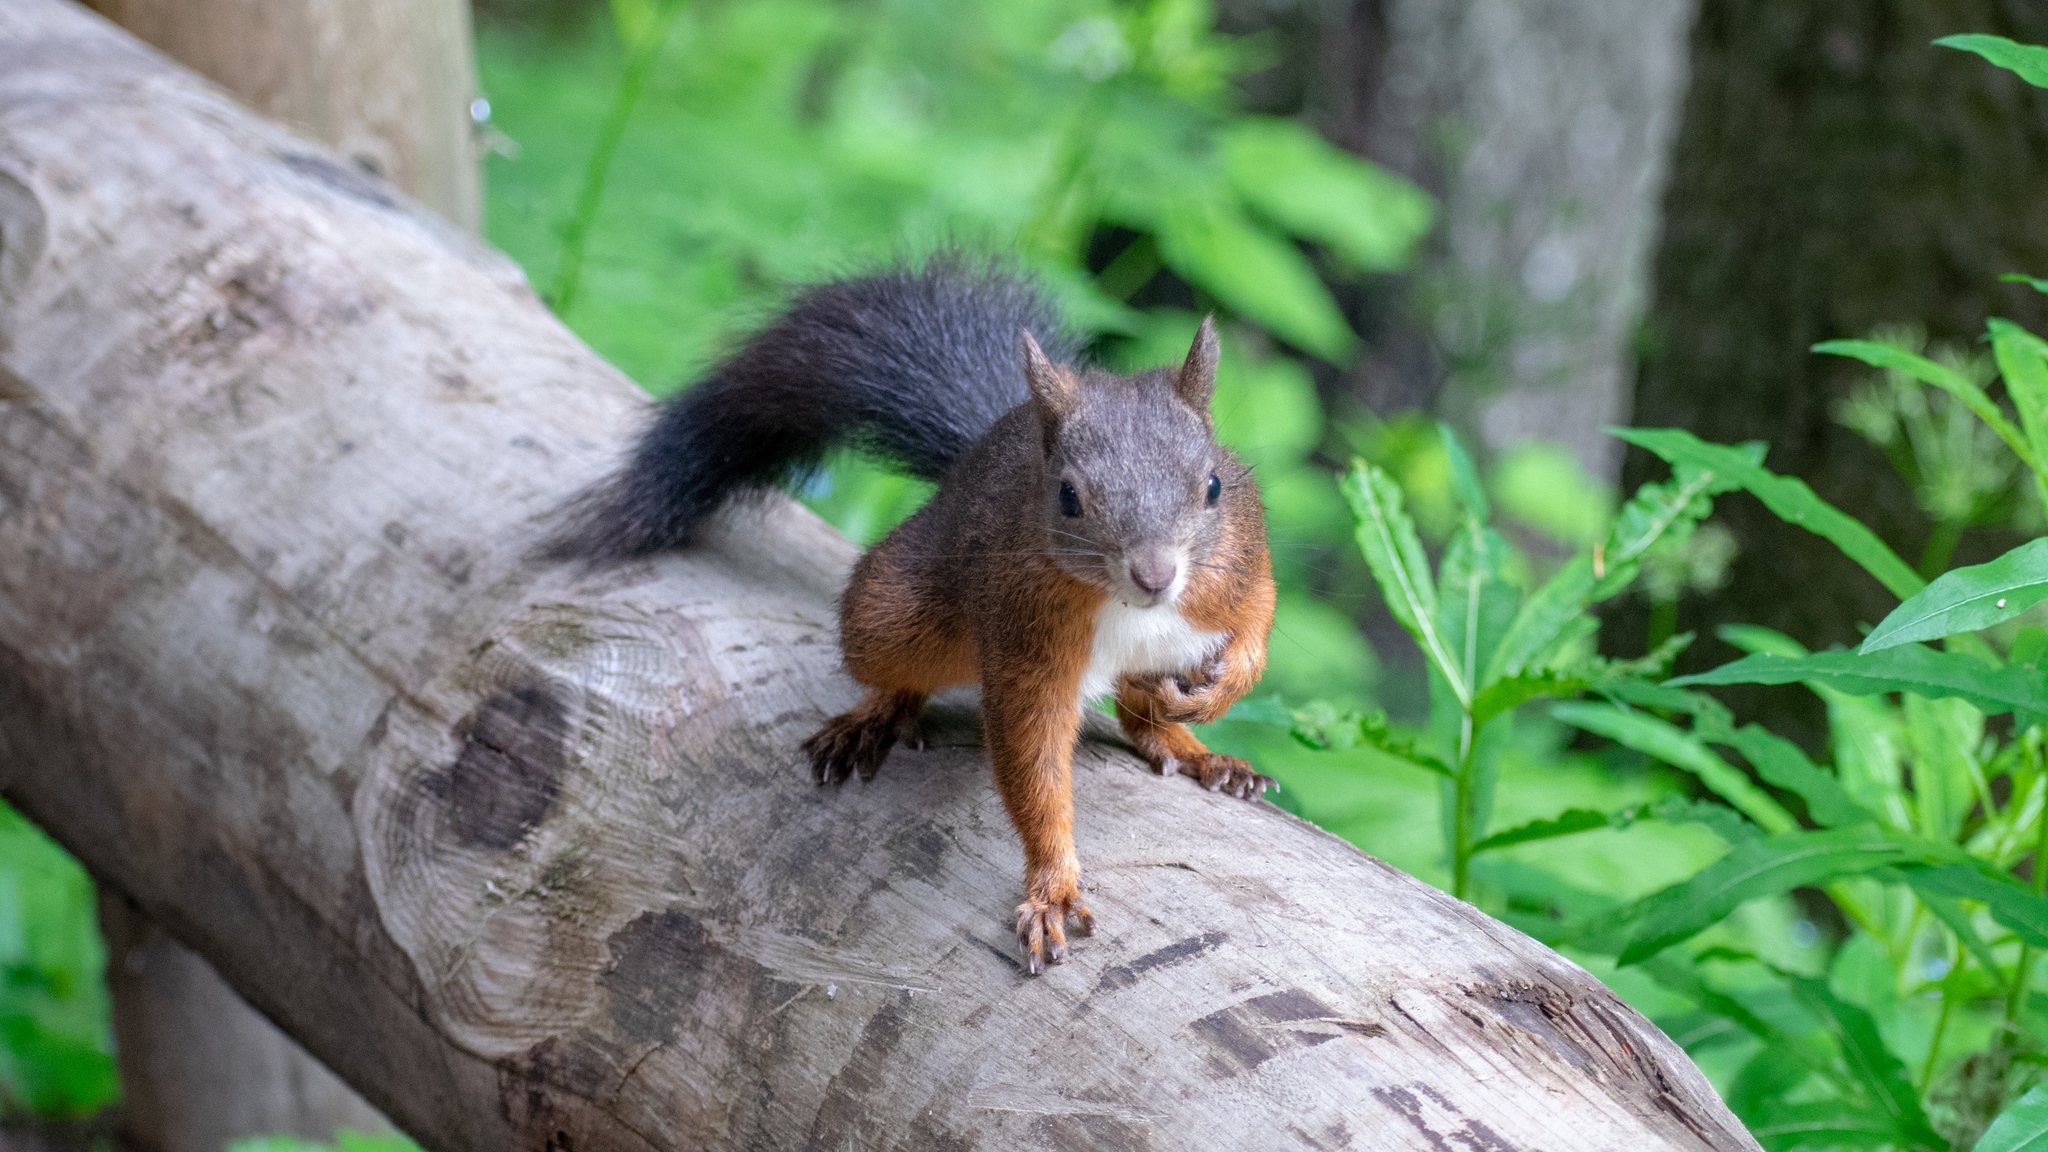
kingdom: Animalia
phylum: Chordata
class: Mammalia
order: Rodentia
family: Sciuridae
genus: Sciurus
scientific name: Sciurus vulgaris
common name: Eurasian red squirrel
